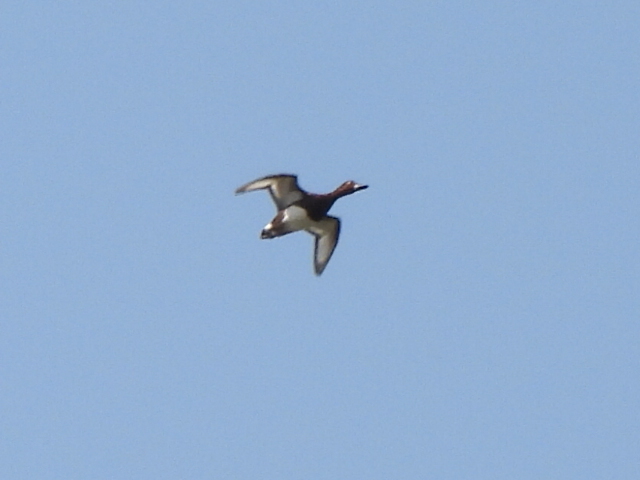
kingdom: Animalia
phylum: Chordata
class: Aves
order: Anseriformes
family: Anatidae
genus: Aythya
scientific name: Aythya nyroca
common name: Ferruginous duck
